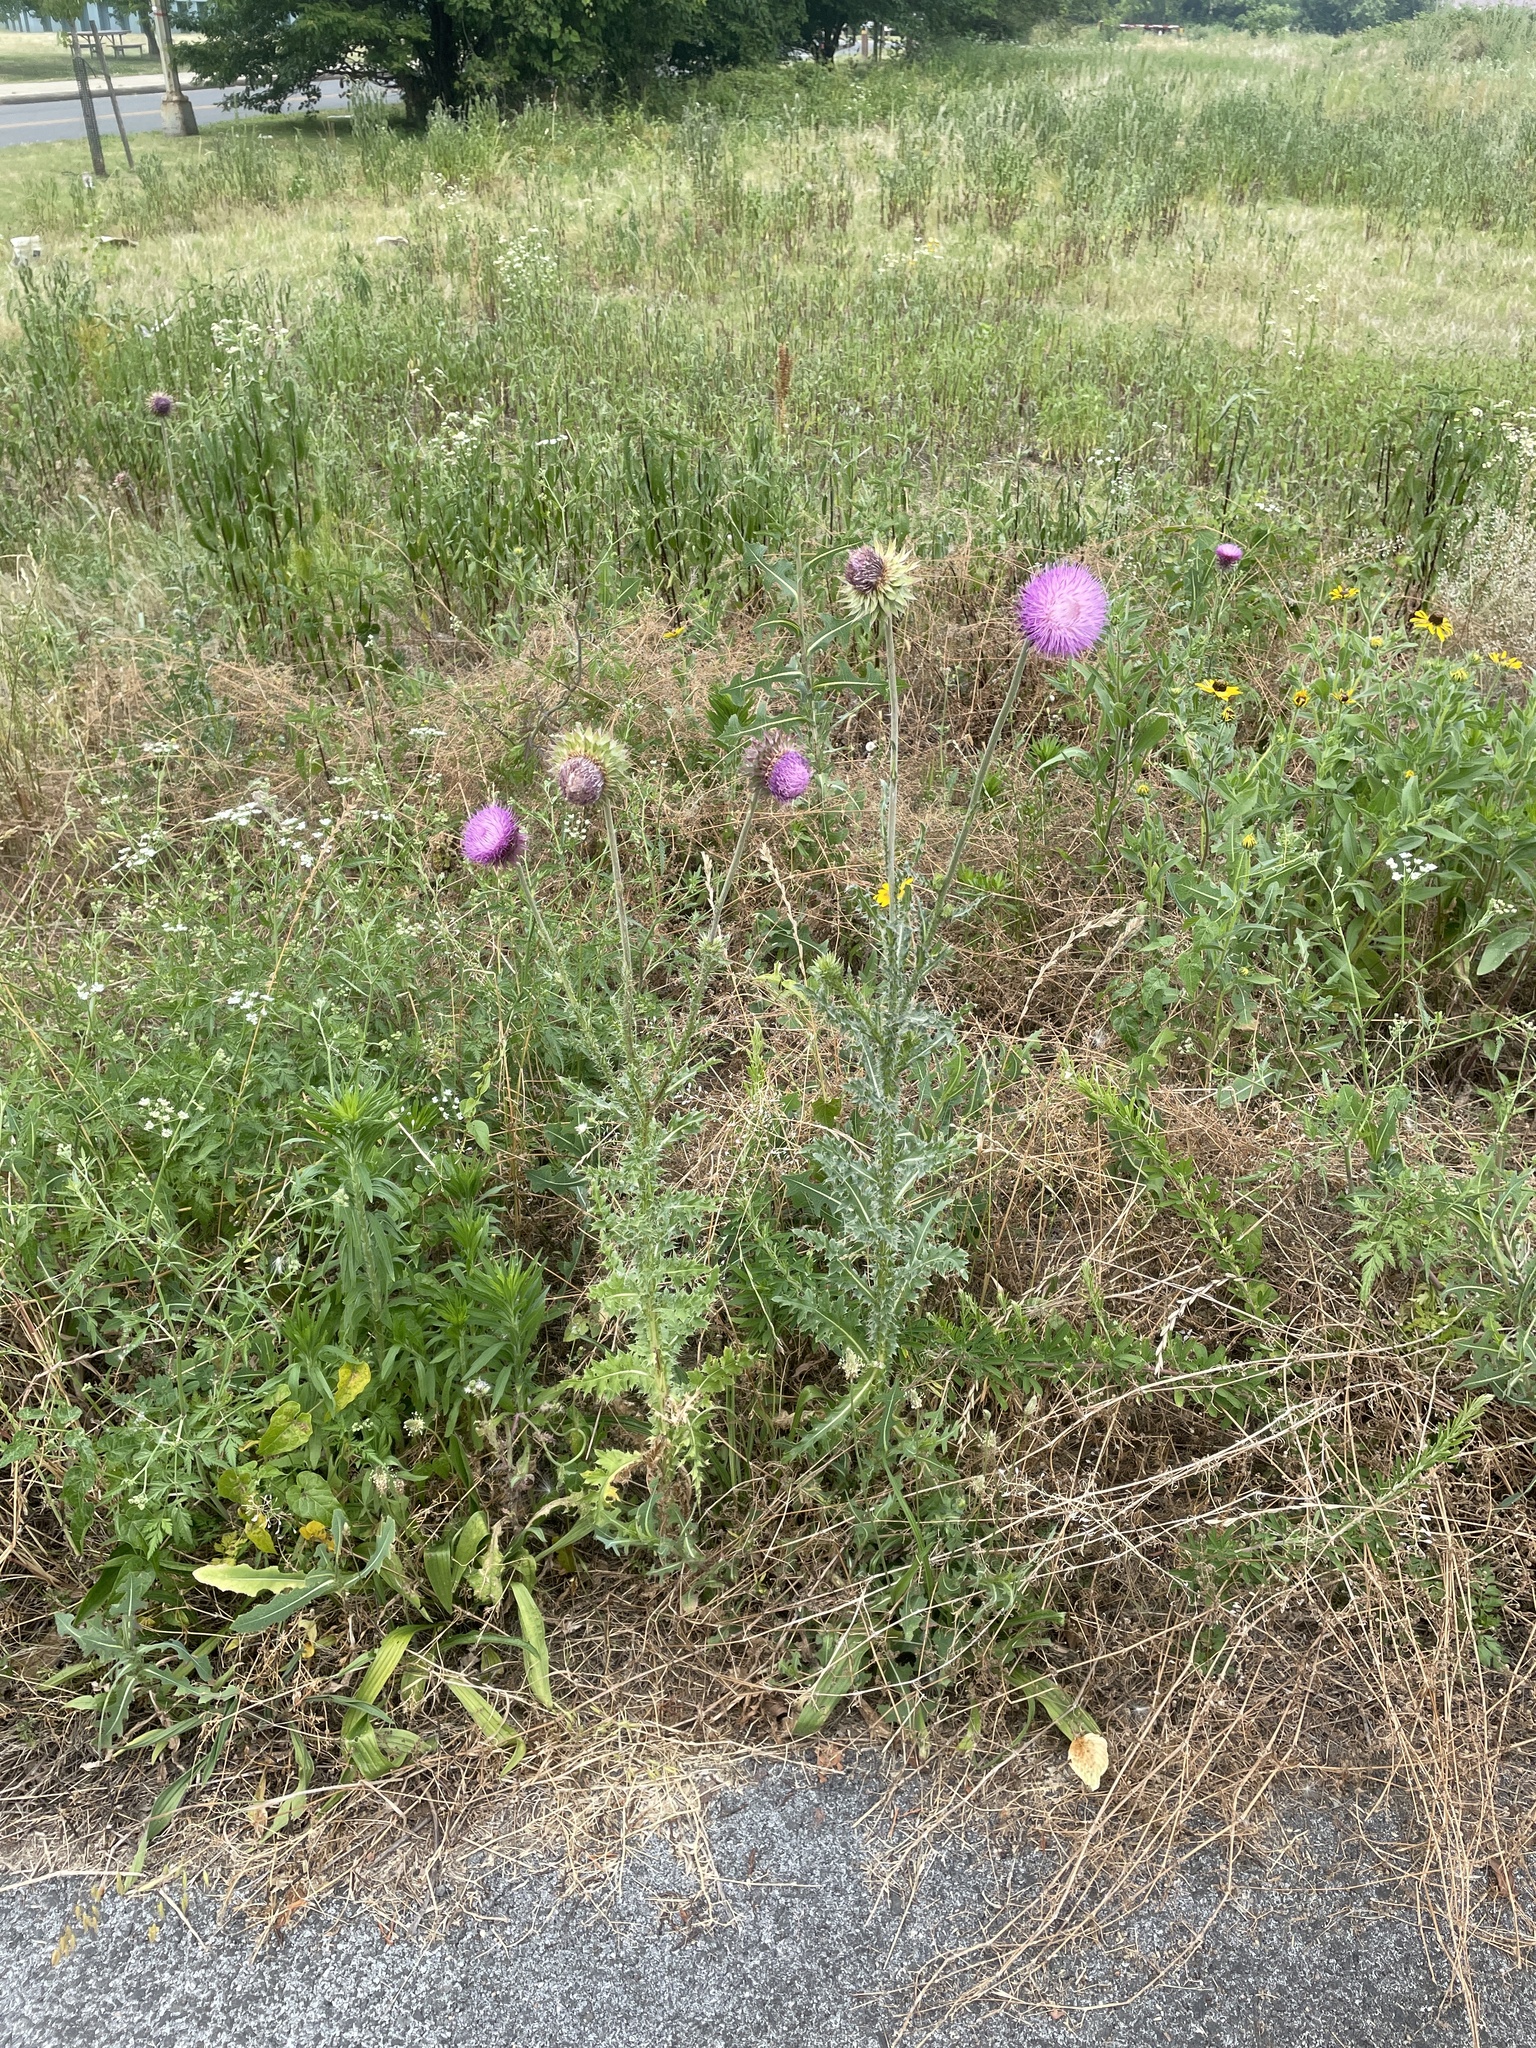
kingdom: Plantae
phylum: Tracheophyta
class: Magnoliopsida
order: Asterales
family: Asteraceae
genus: Carduus
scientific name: Carduus nutans
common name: Musk thistle
